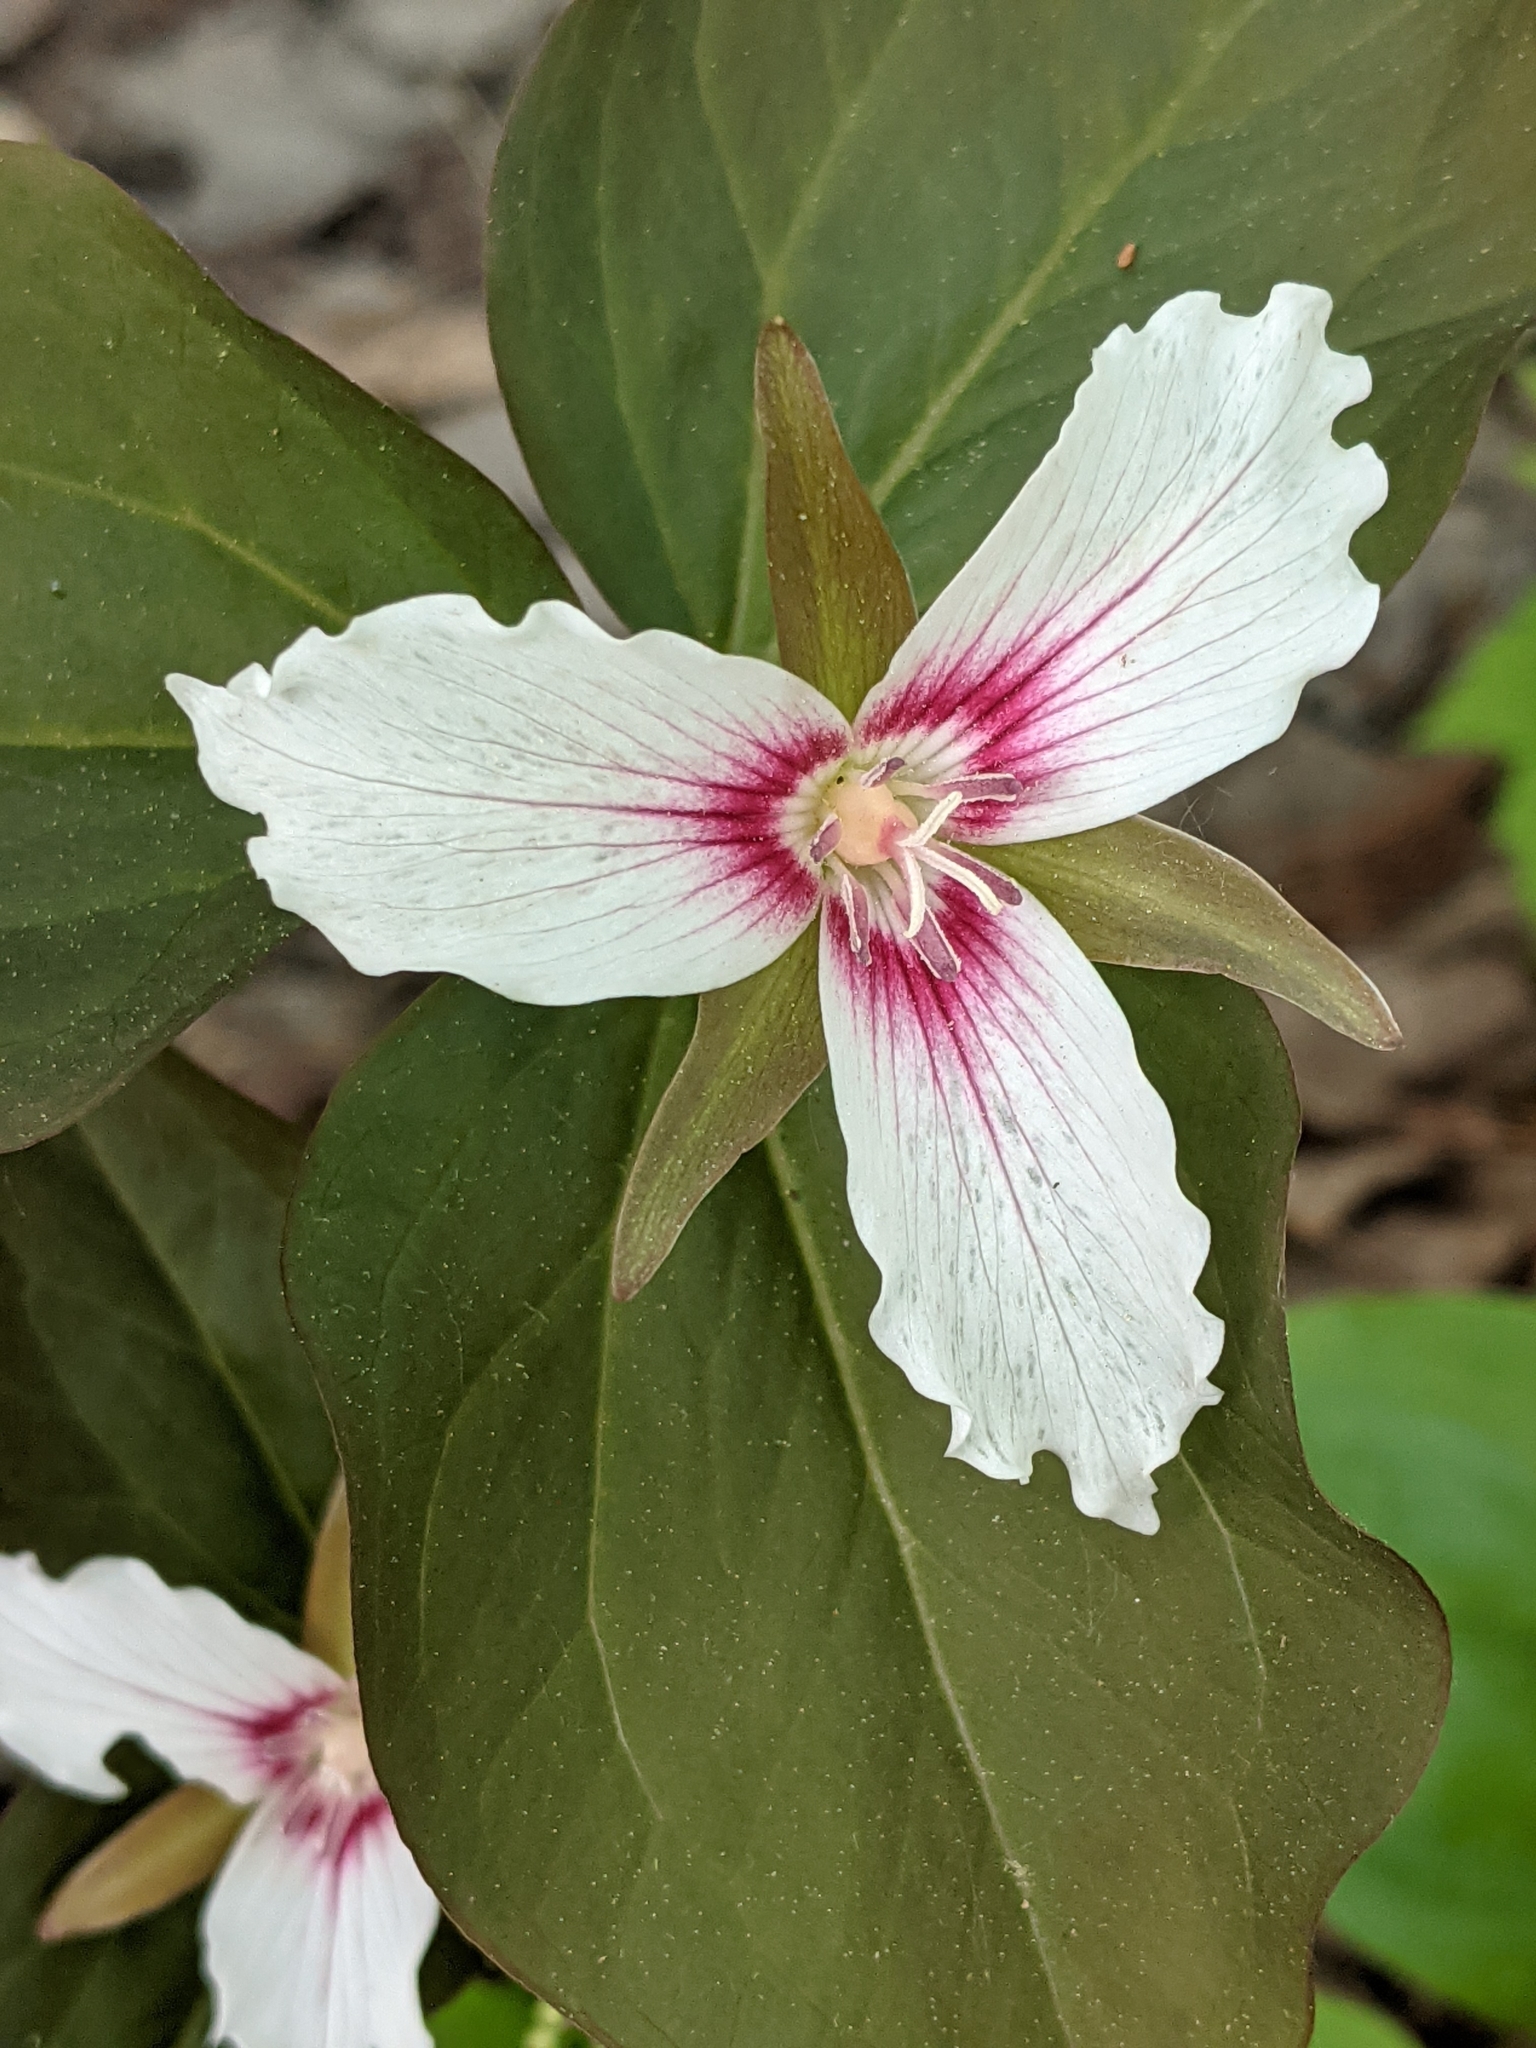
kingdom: Plantae
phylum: Tracheophyta
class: Liliopsida
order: Liliales
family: Melanthiaceae
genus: Trillium
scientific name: Trillium undulatum
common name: Paint trillium
